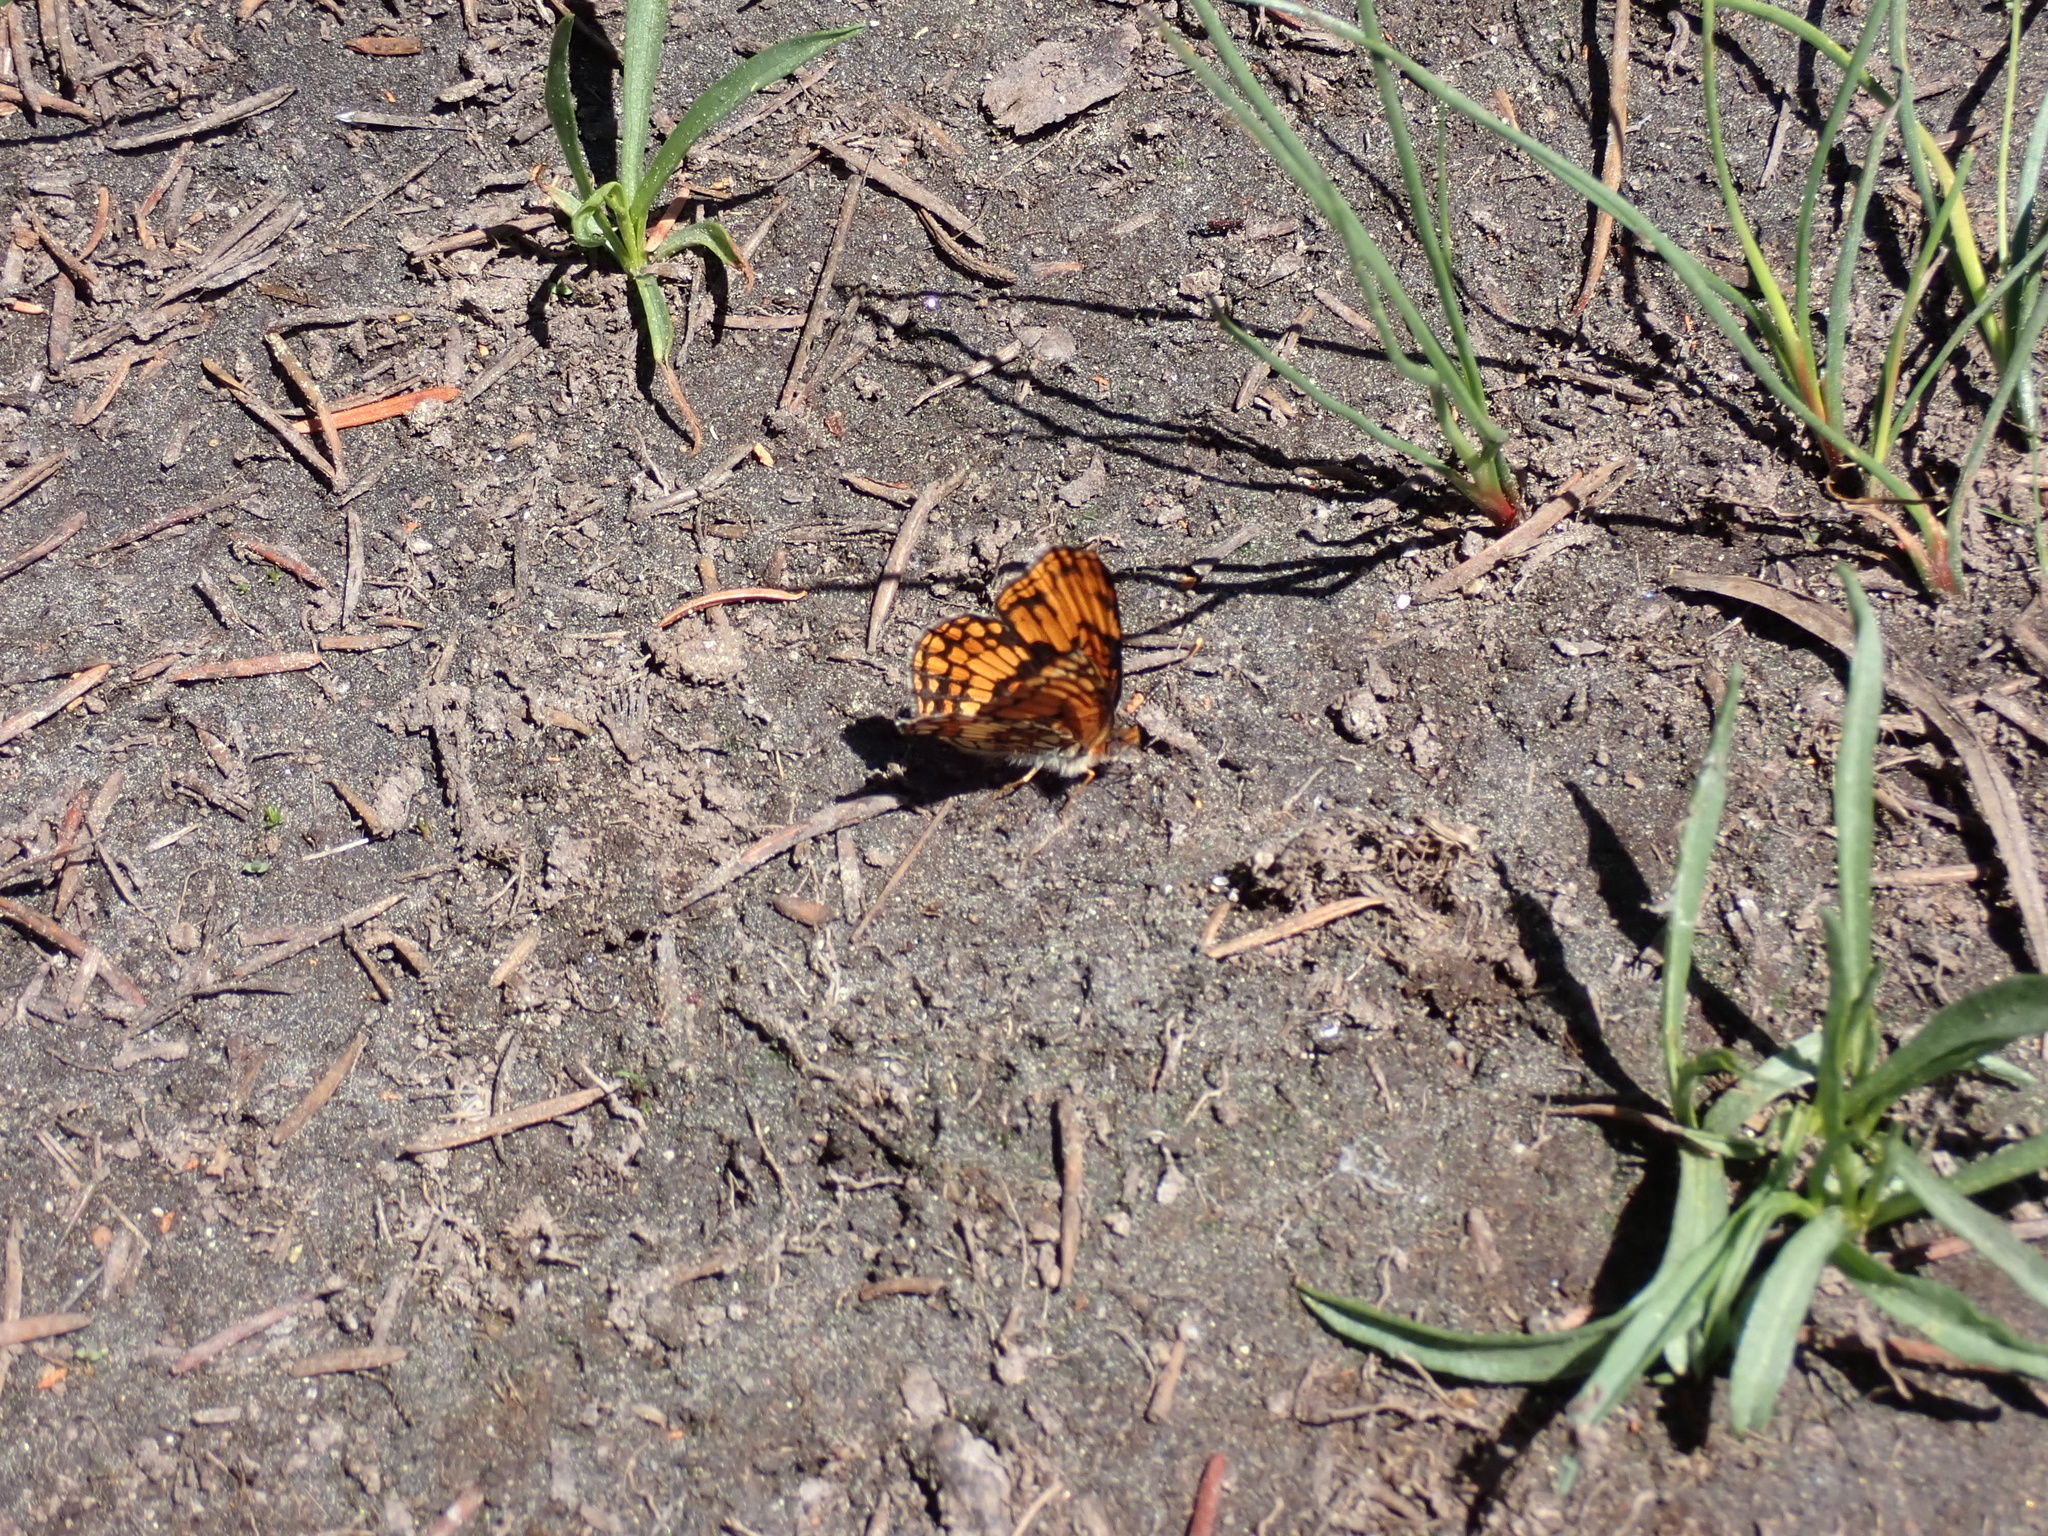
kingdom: Animalia
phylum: Arthropoda
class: Insecta
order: Lepidoptera
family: Nymphalidae
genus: Chlosyne
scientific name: Chlosyne hoffmanni
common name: Hoffmann's checkerspot
